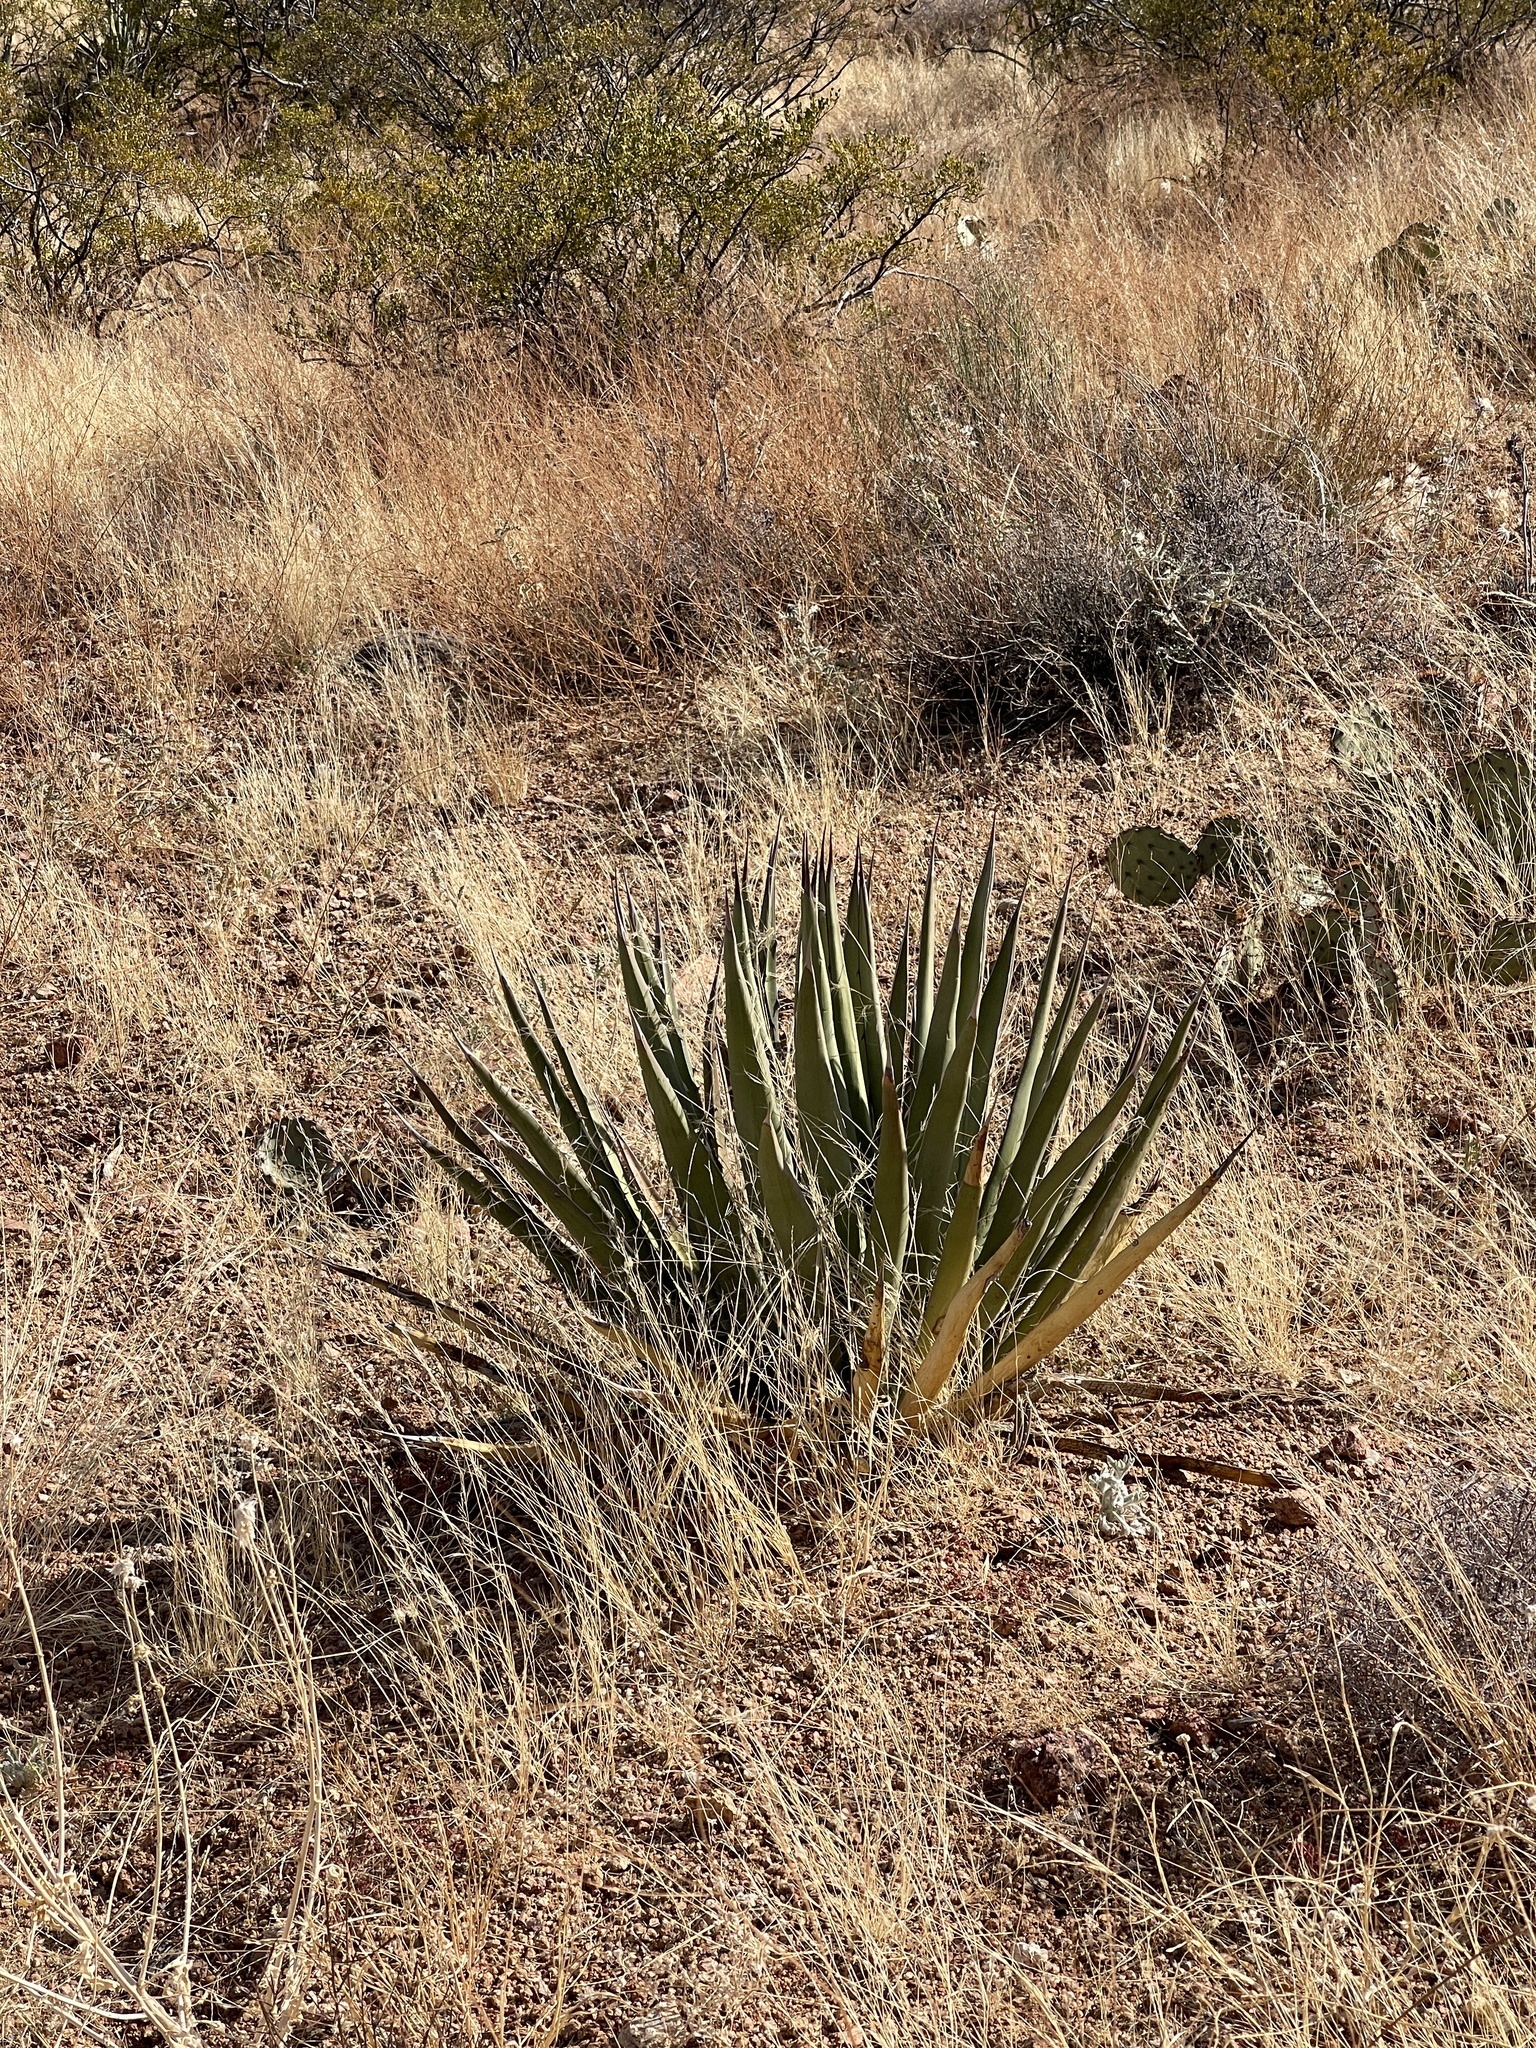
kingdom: Plantae
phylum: Tracheophyta
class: Liliopsida
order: Asparagales
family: Asparagaceae
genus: Agave
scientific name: Agave lechuguilla
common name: Lecheguilla agave
